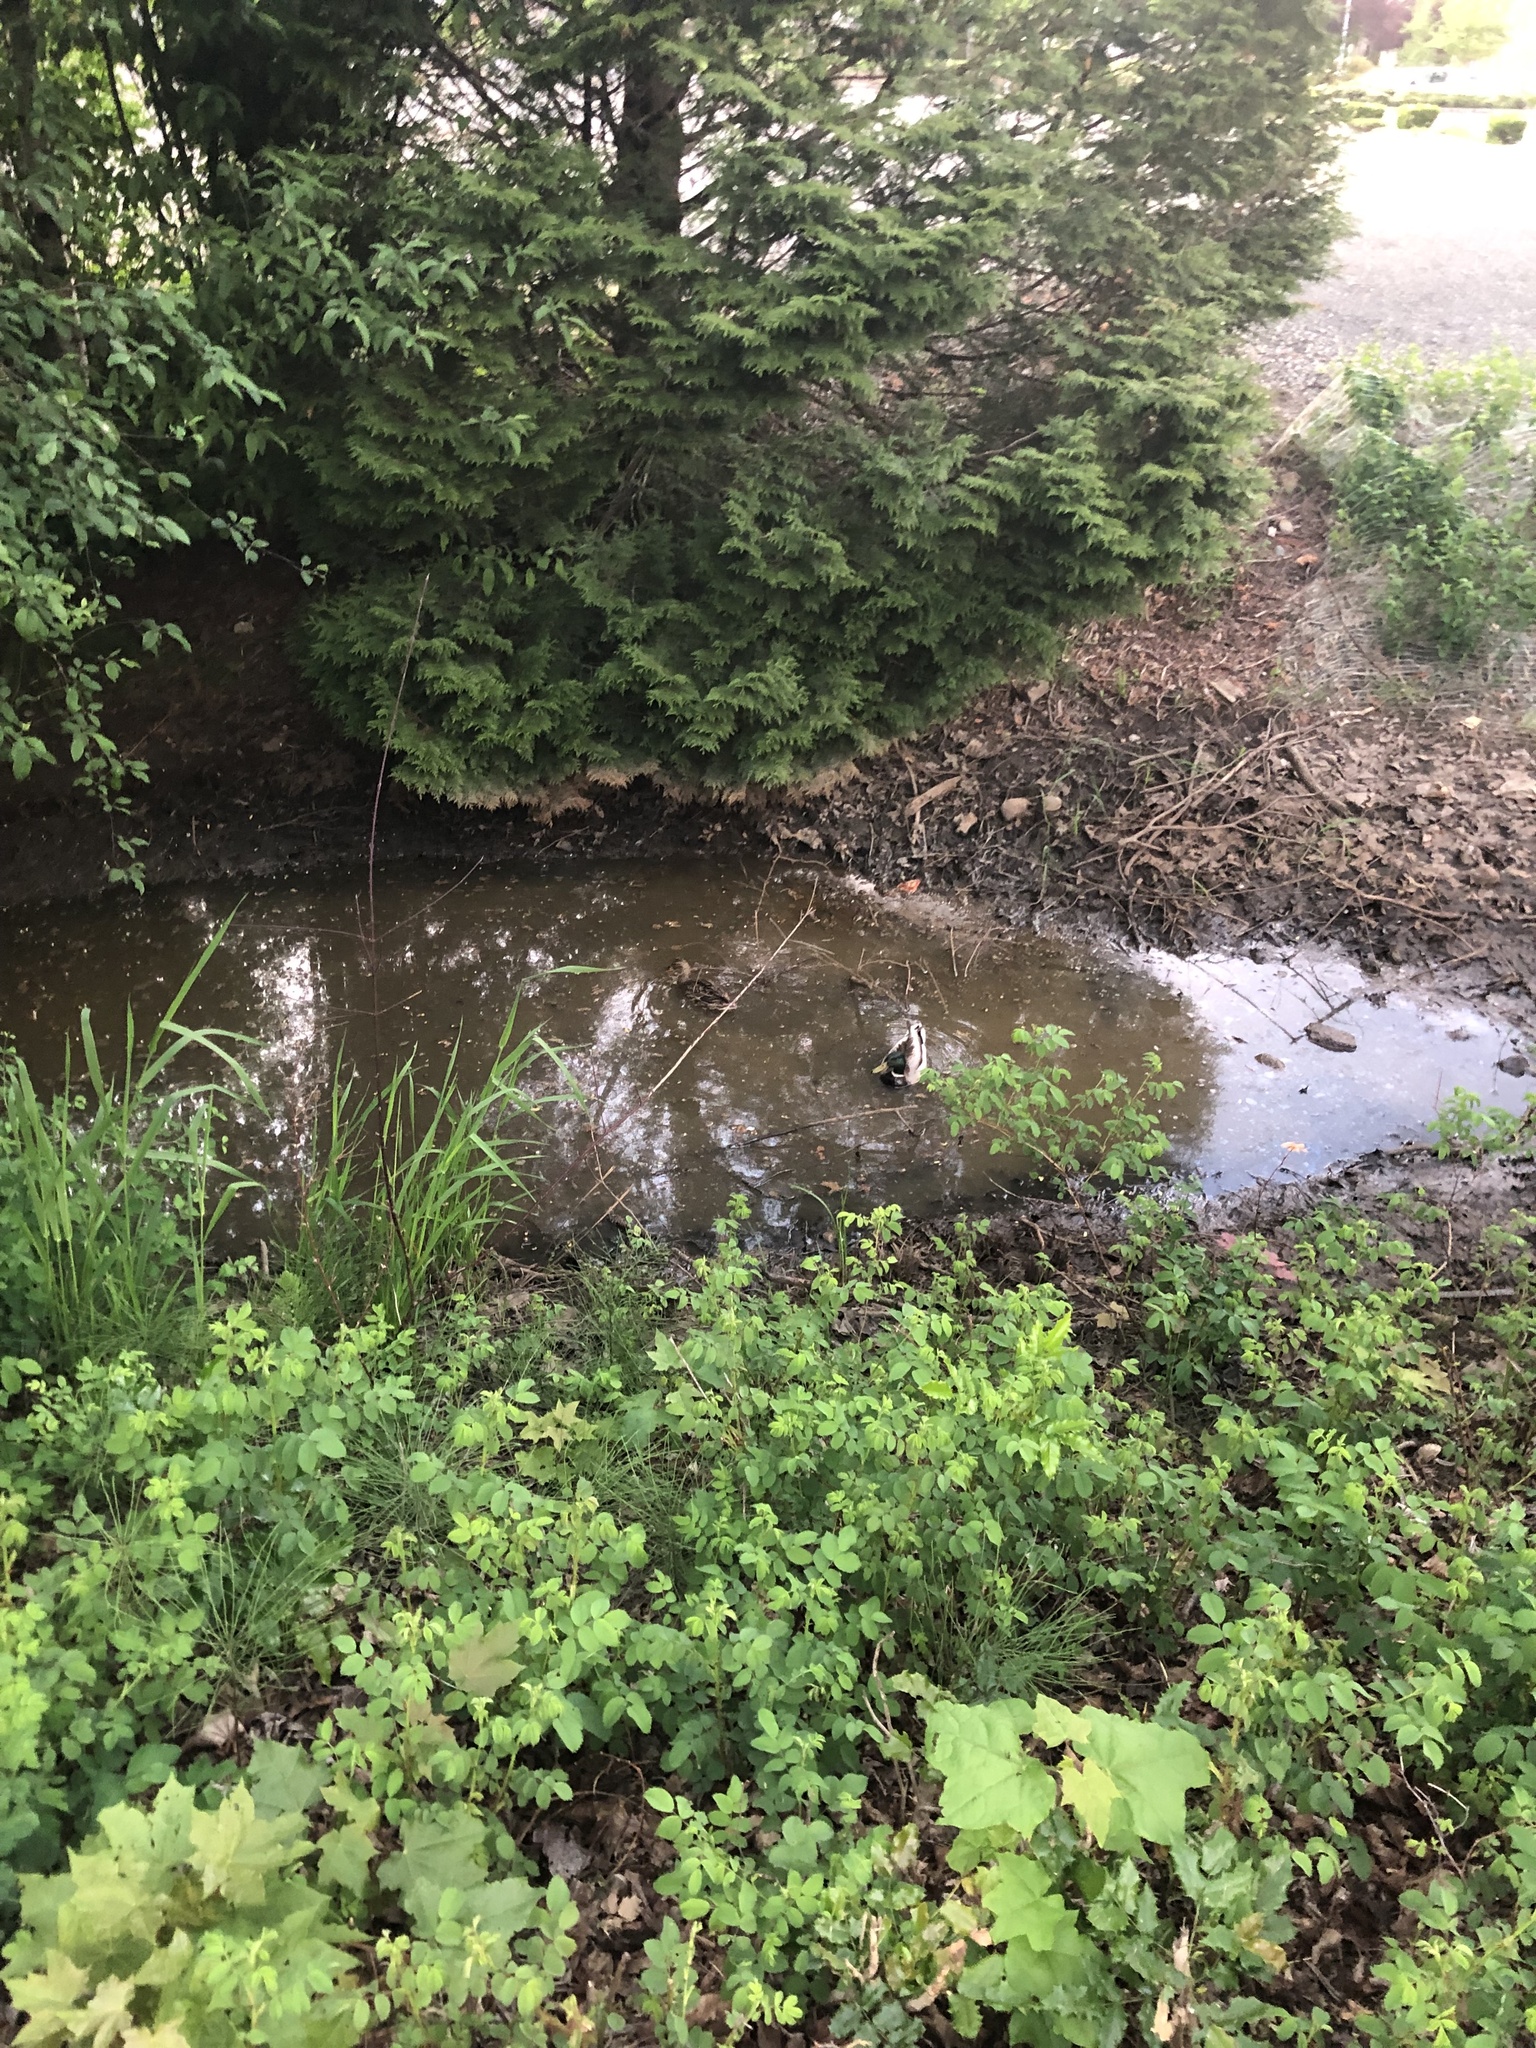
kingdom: Animalia
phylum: Chordata
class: Aves
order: Anseriformes
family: Anatidae
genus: Anas
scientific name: Anas platyrhynchos
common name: Mallard
